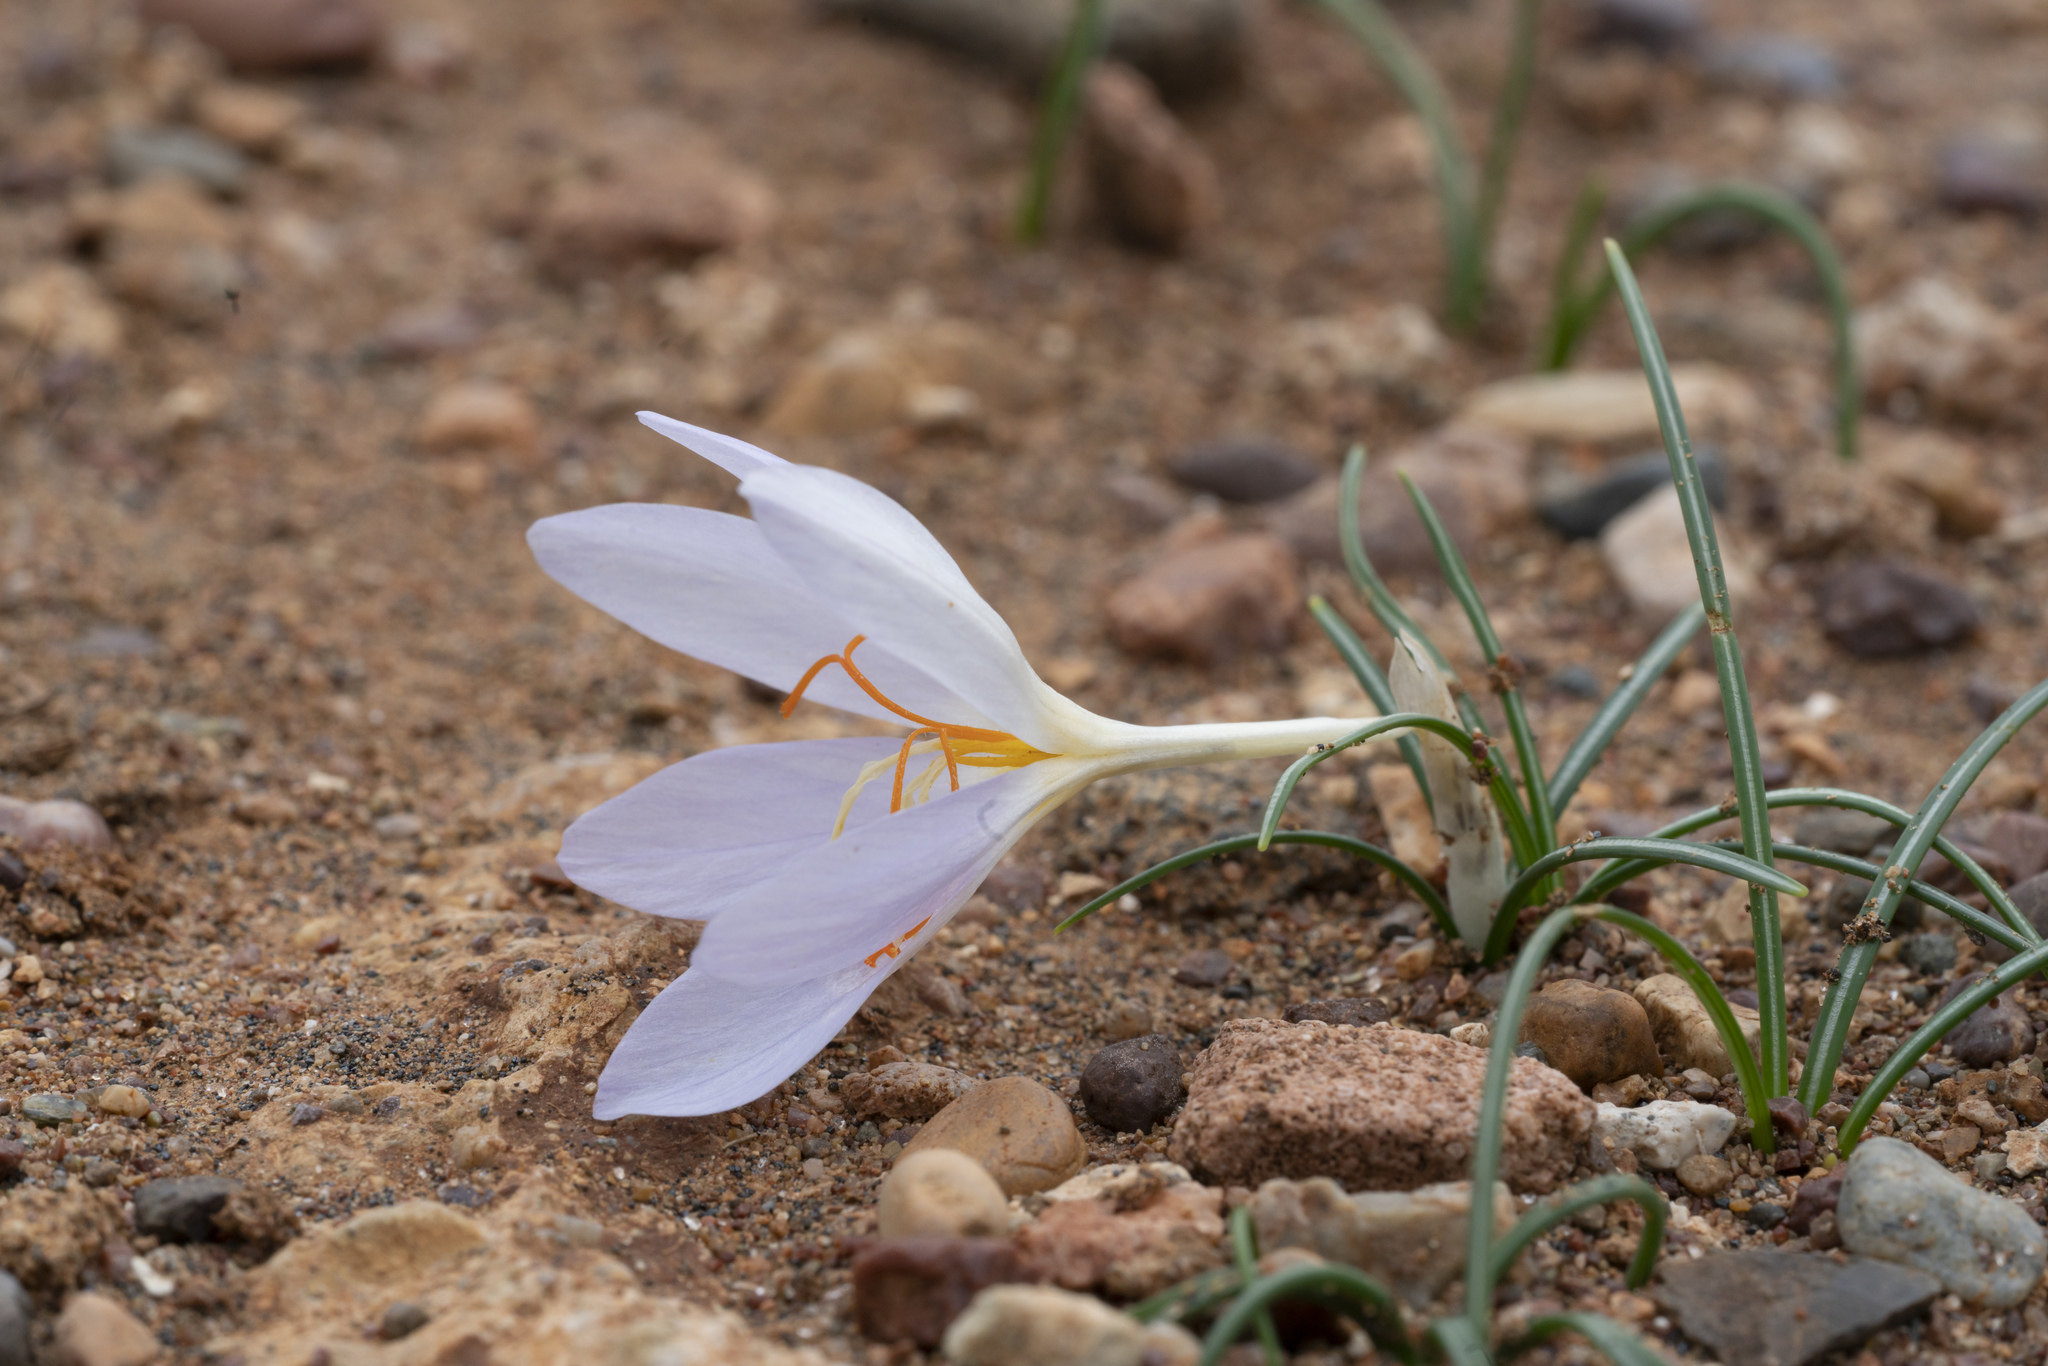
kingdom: Plantae
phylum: Tracheophyta
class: Liliopsida
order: Asparagales
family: Iridaceae
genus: Crocus
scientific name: Crocus tournefortii
